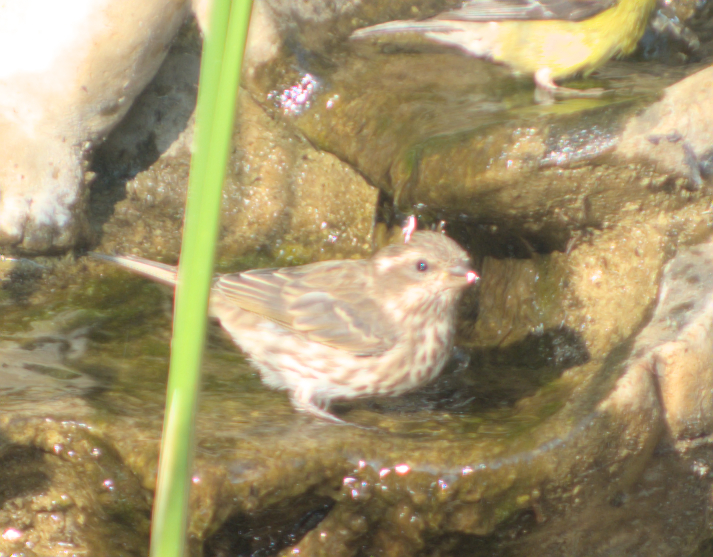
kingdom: Animalia
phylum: Chordata
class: Aves
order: Passeriformes
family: Fringillidae
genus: Haemorhous
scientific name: Haemorhous purpureus
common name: Purple finch
